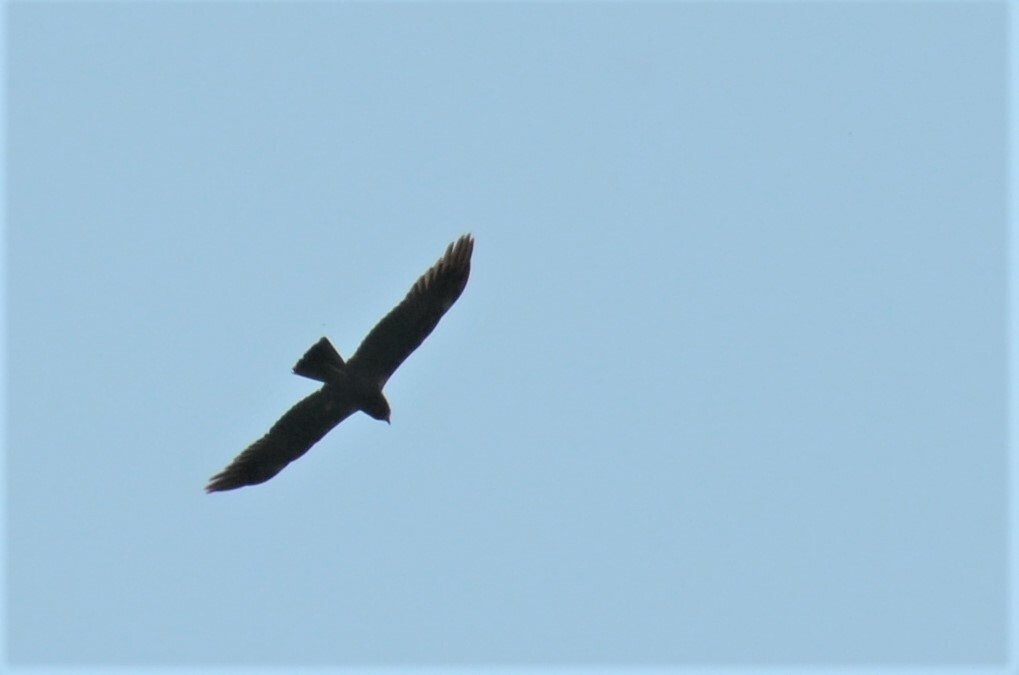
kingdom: Animalia
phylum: Chordata
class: Aves
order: Accipitriformes
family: Accipitridae
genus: Circus
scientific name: Circus aeruginosus
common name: Western marsh harrier
